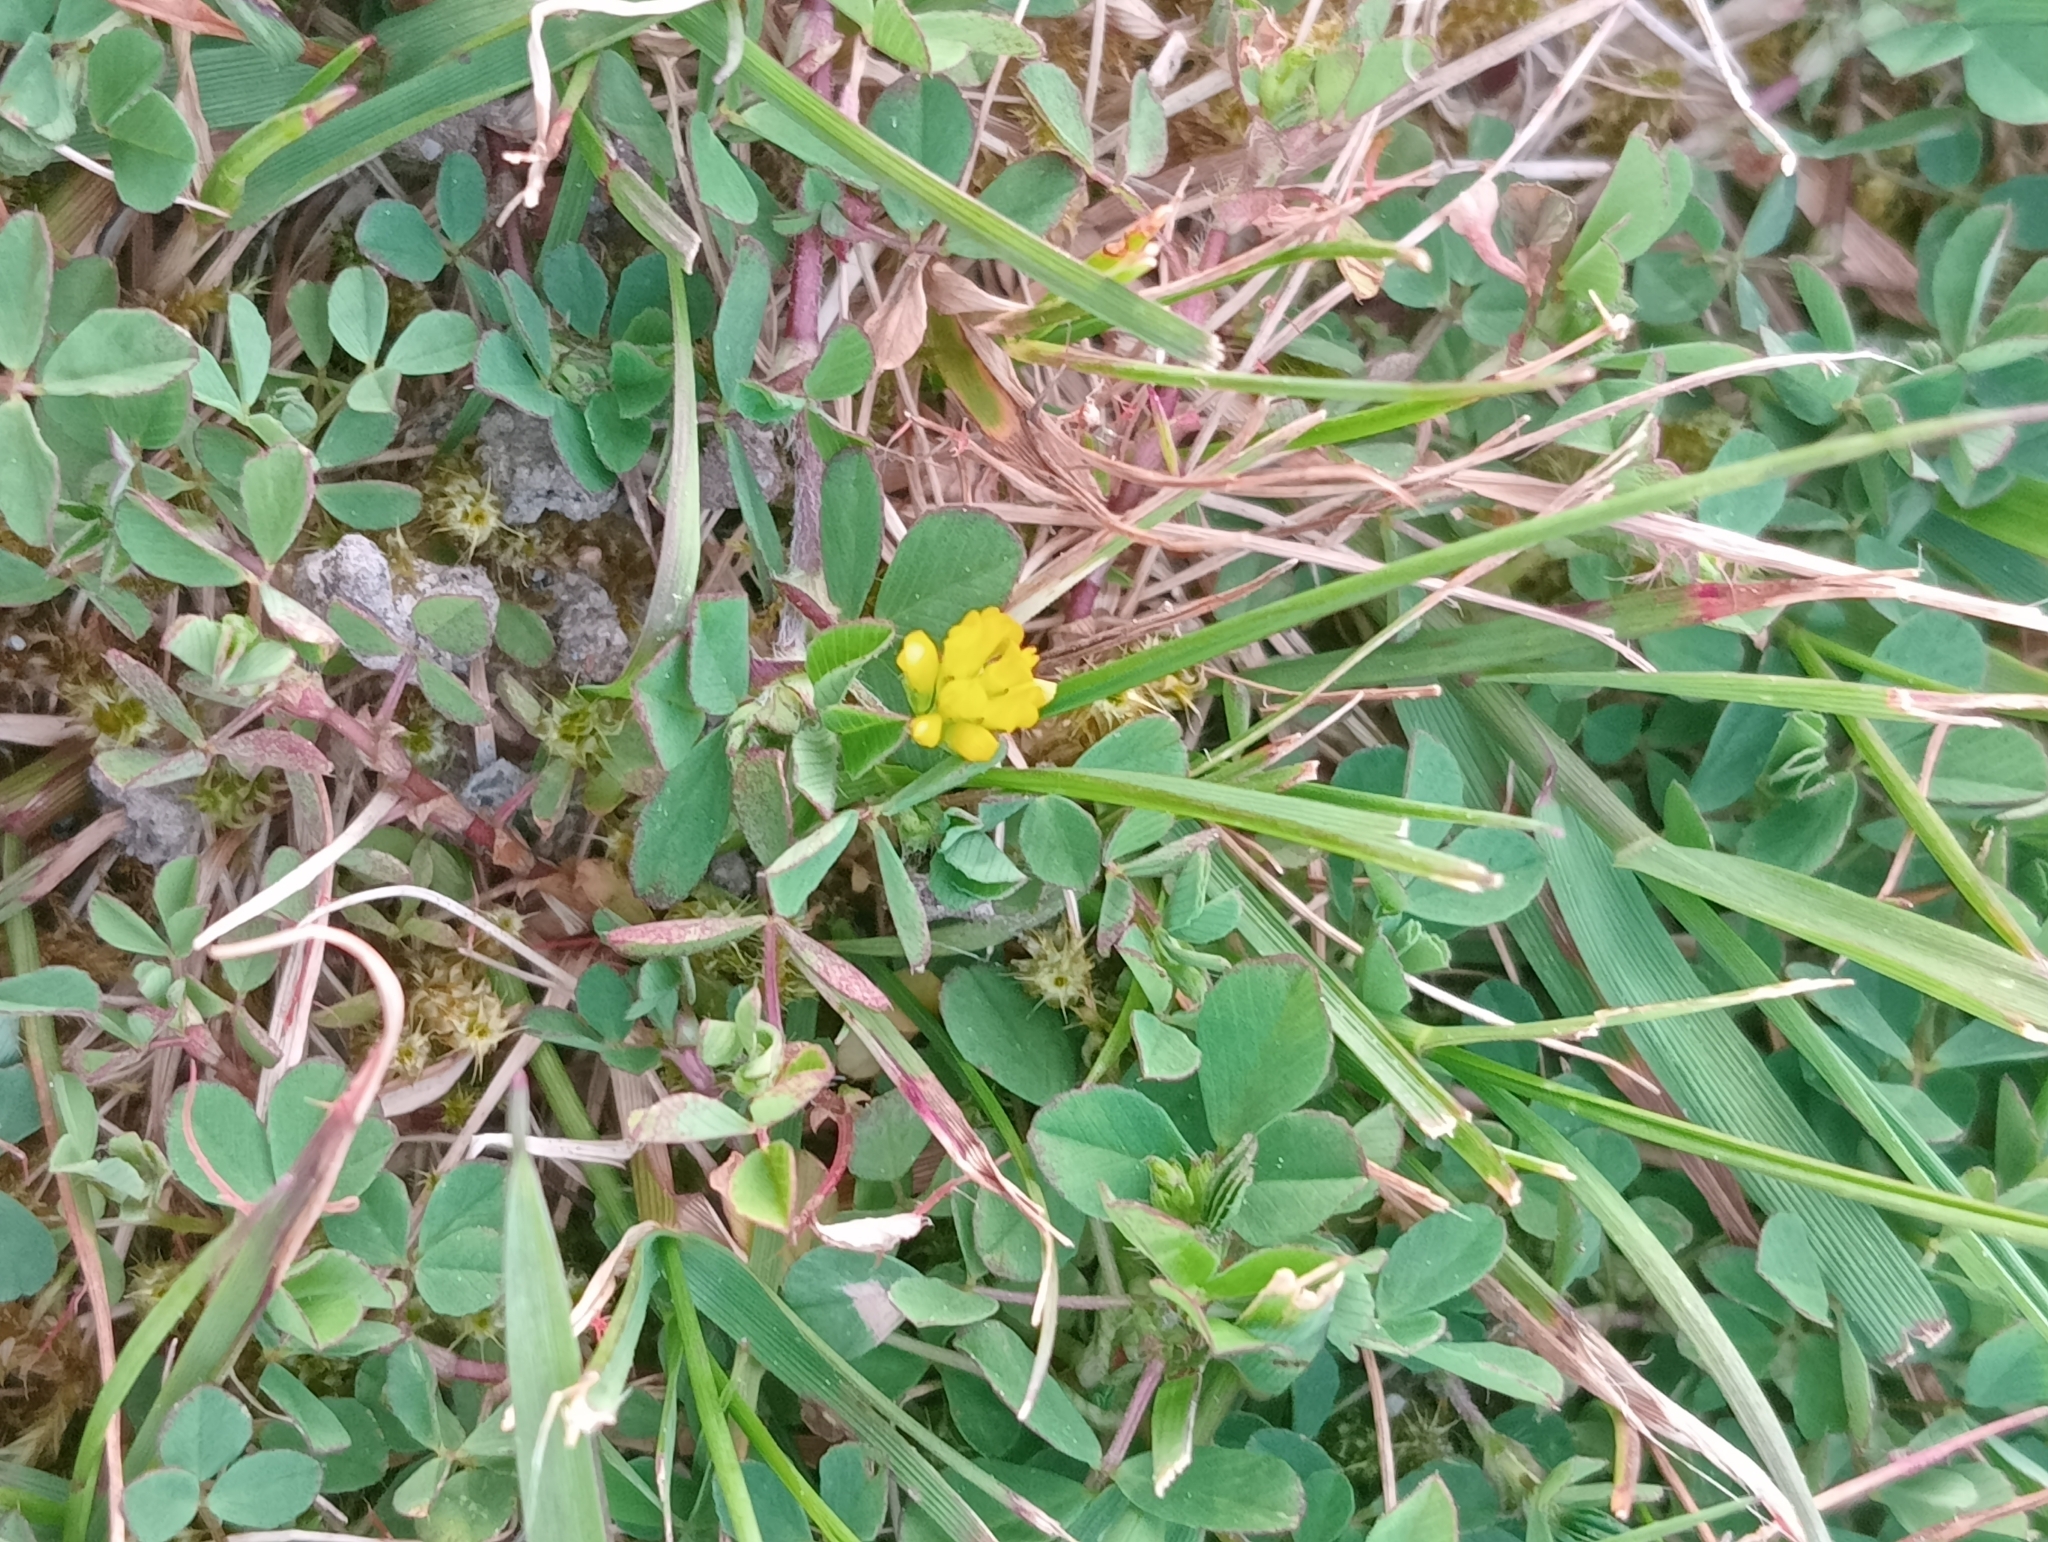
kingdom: Plantae
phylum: Tracheophyta
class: Magnoliopsida
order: Fabales
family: Fabaceae
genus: Trifolium
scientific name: Trifolium dubium
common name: Suckling clover
